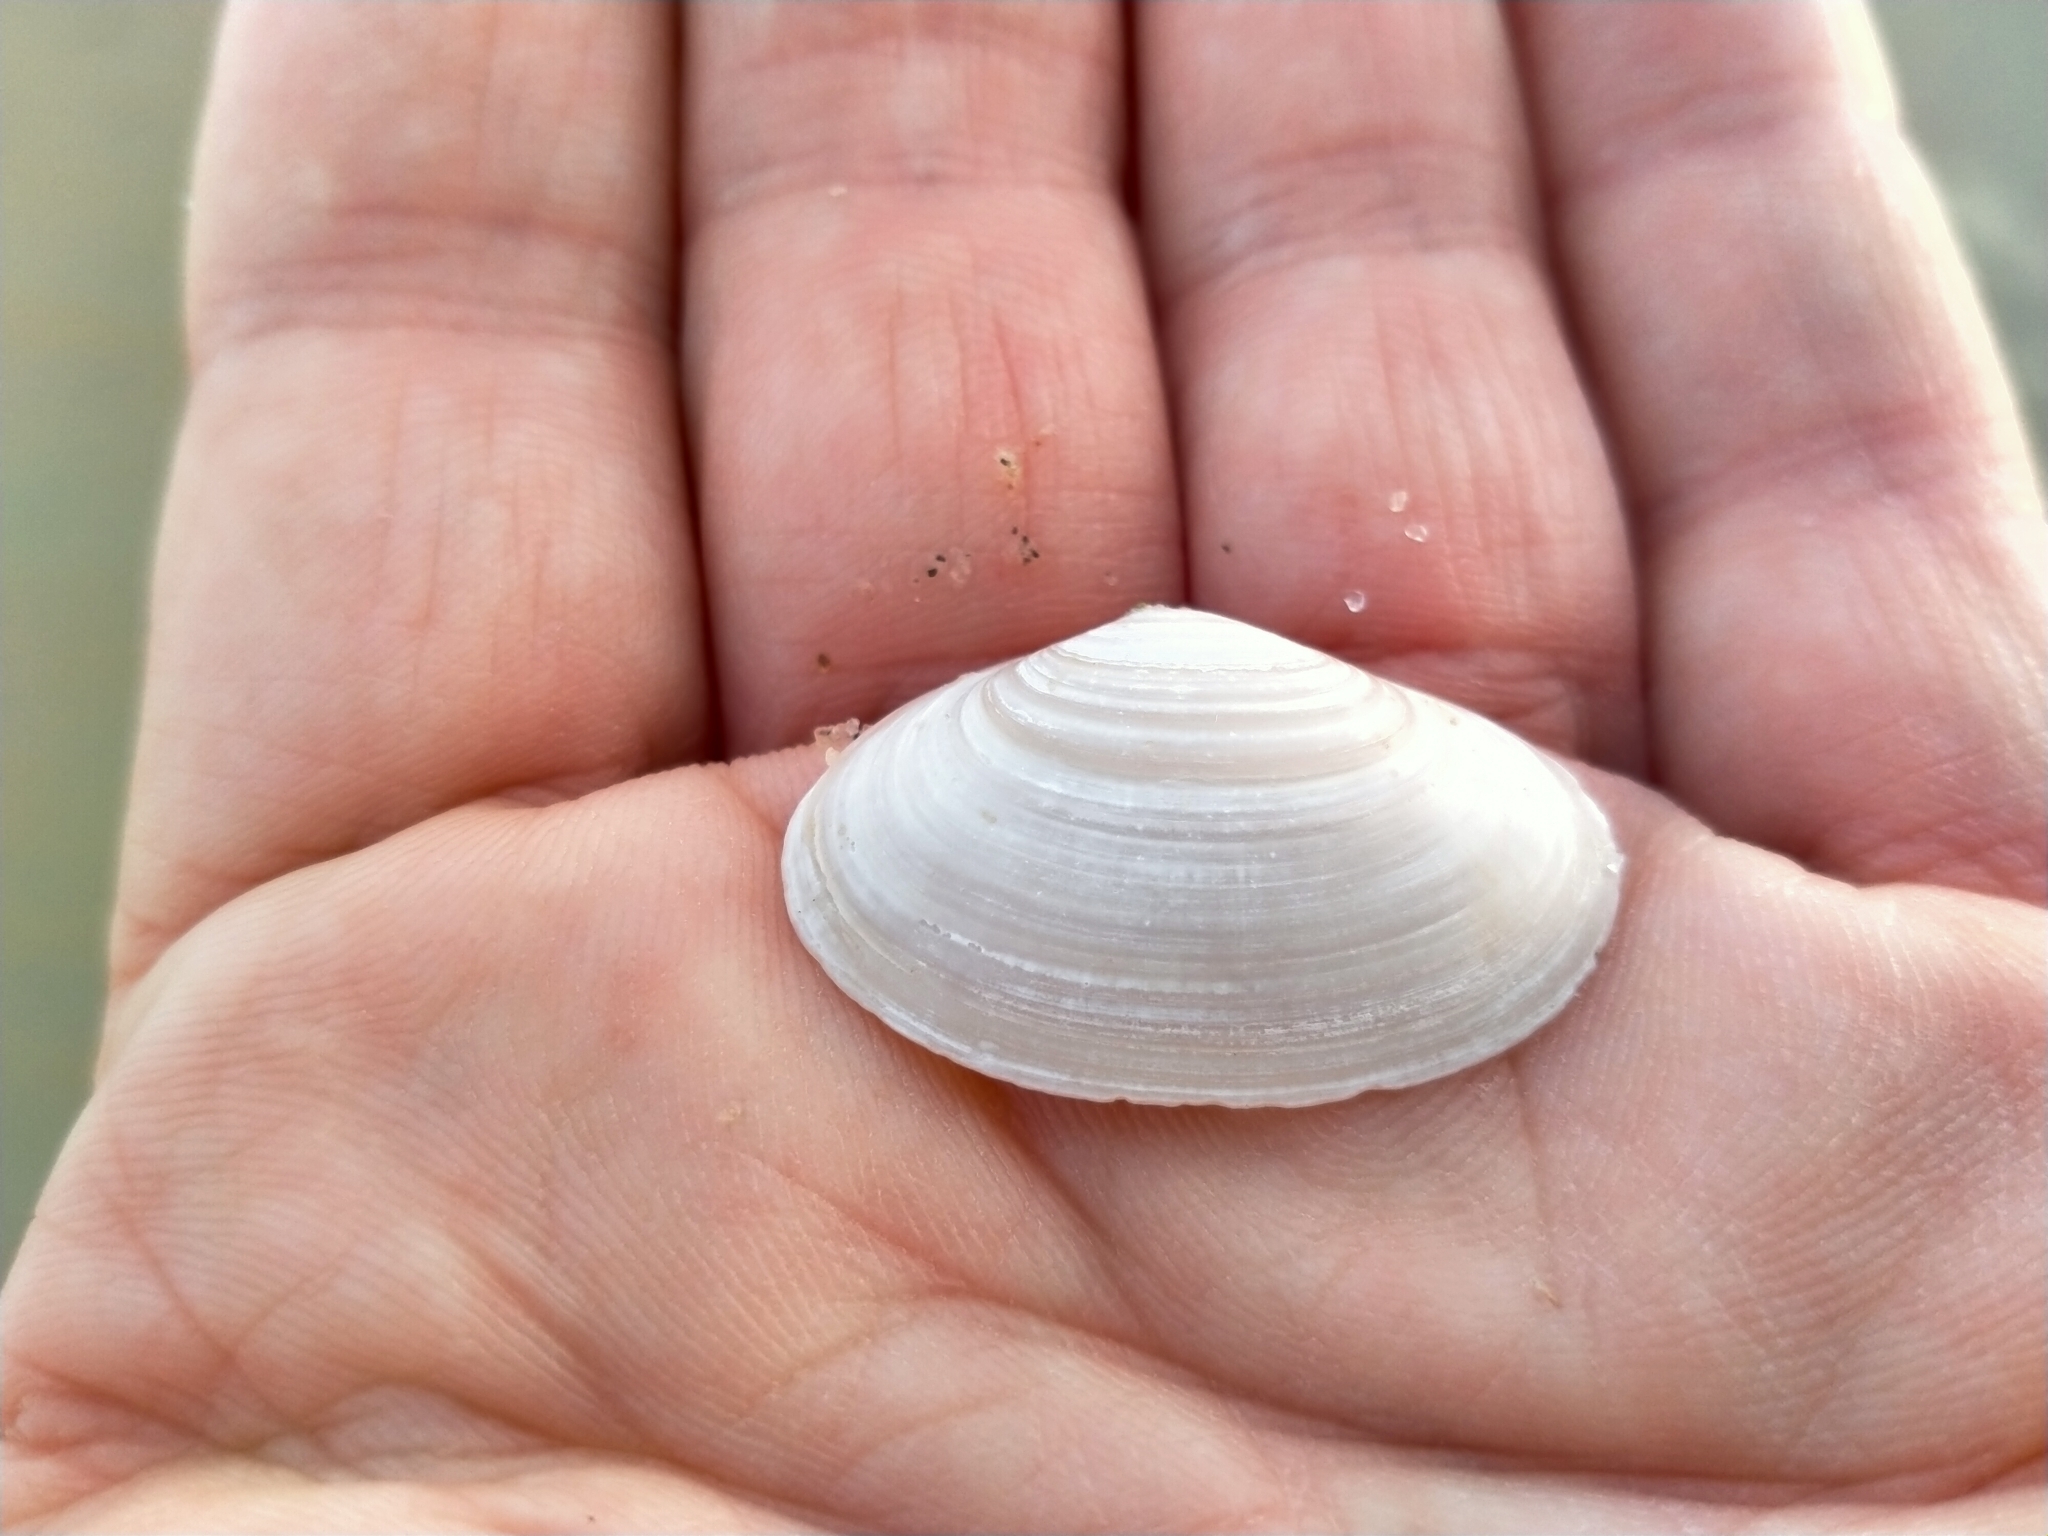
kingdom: Animalia
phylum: Mollusca
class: Bivalvia
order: Venerida
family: Mesodesmatidae
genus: Paphies
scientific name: Paphies australis
